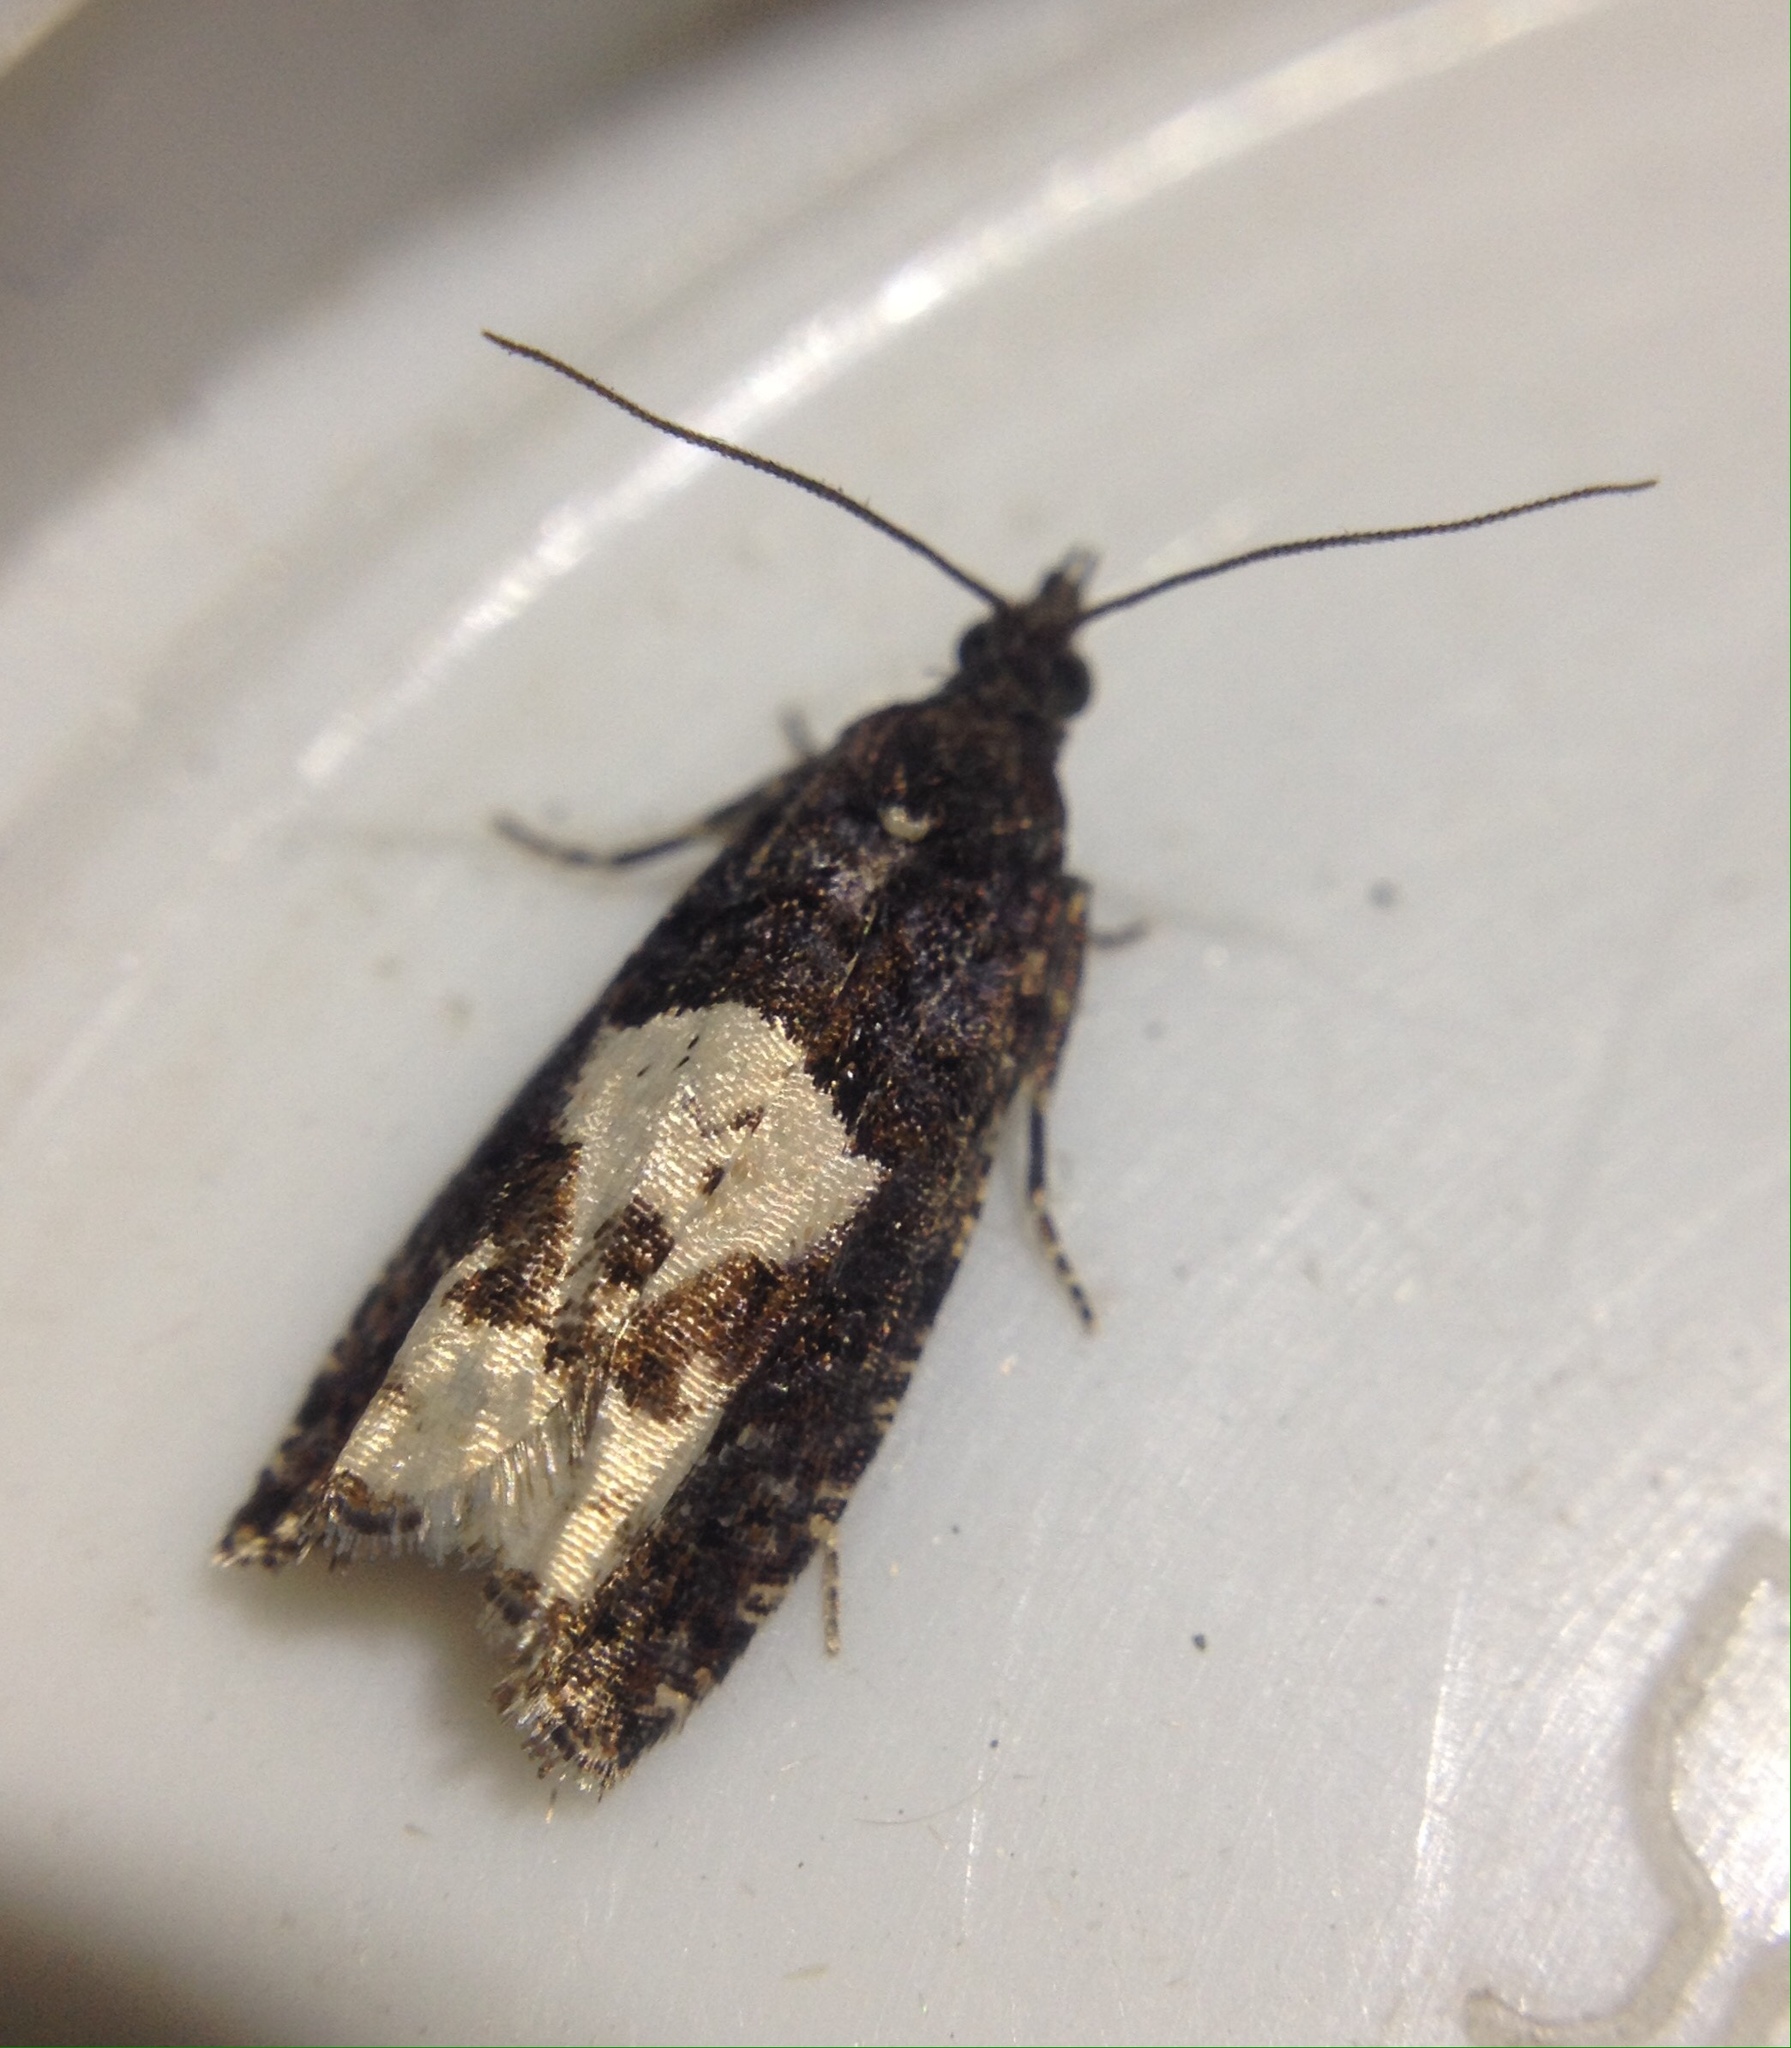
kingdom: Animalia
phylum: Arthropoda
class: Insecta
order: Lepidoptera
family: Tortricidae
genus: Epinotia
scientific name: Epinotia trigonella
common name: White-blotch bell
